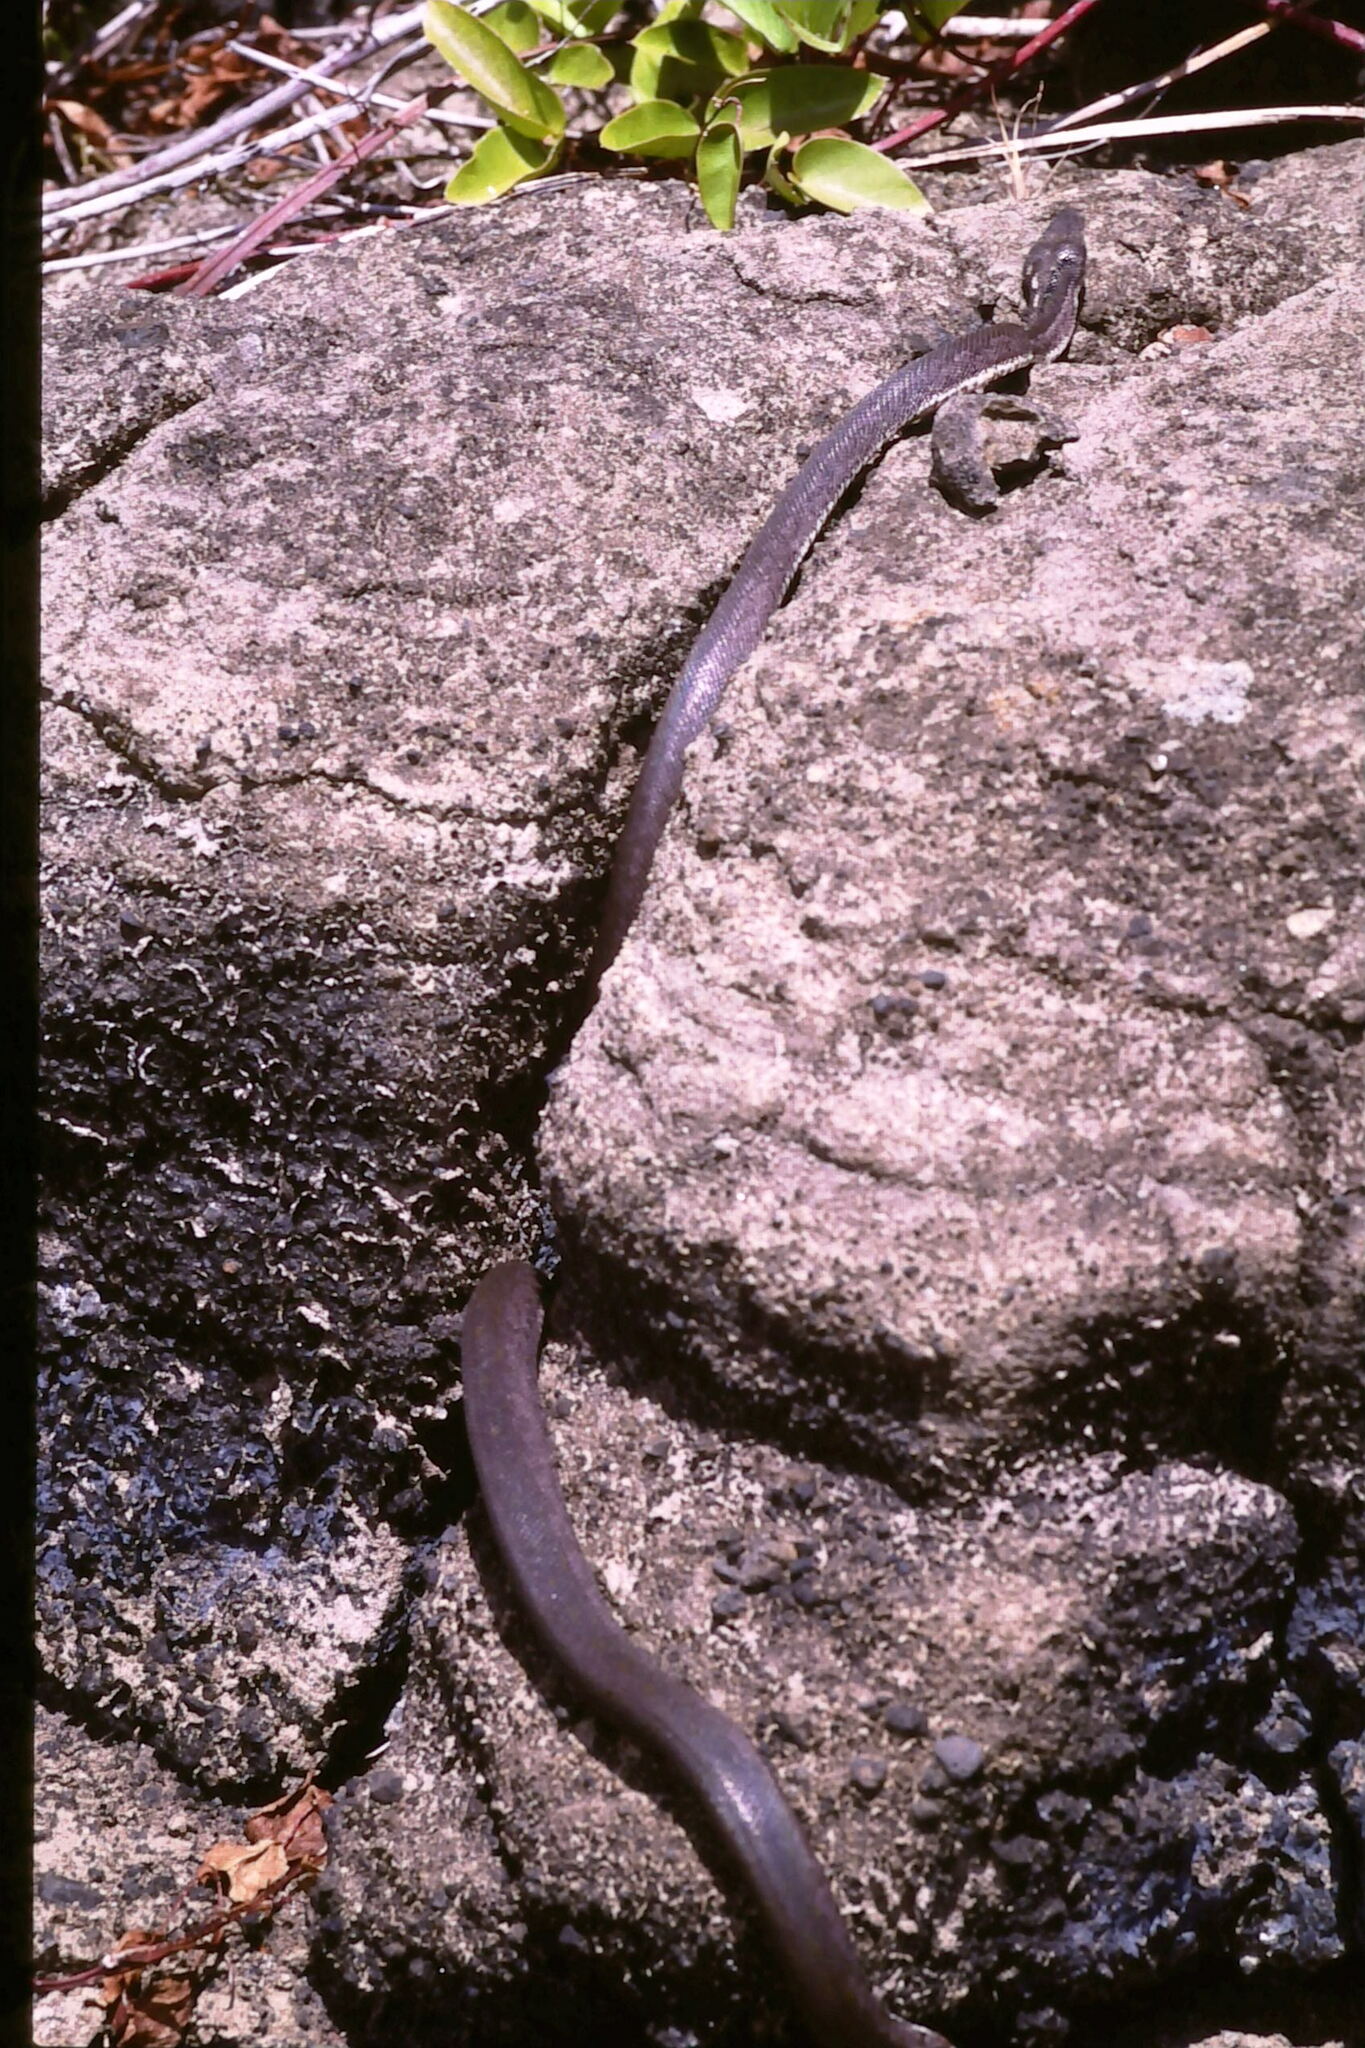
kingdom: Animalia
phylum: Chordata
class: Squamata
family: Bolyeriidae
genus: Casarea
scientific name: Casarea dussumieri
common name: Keel-scaled boa
